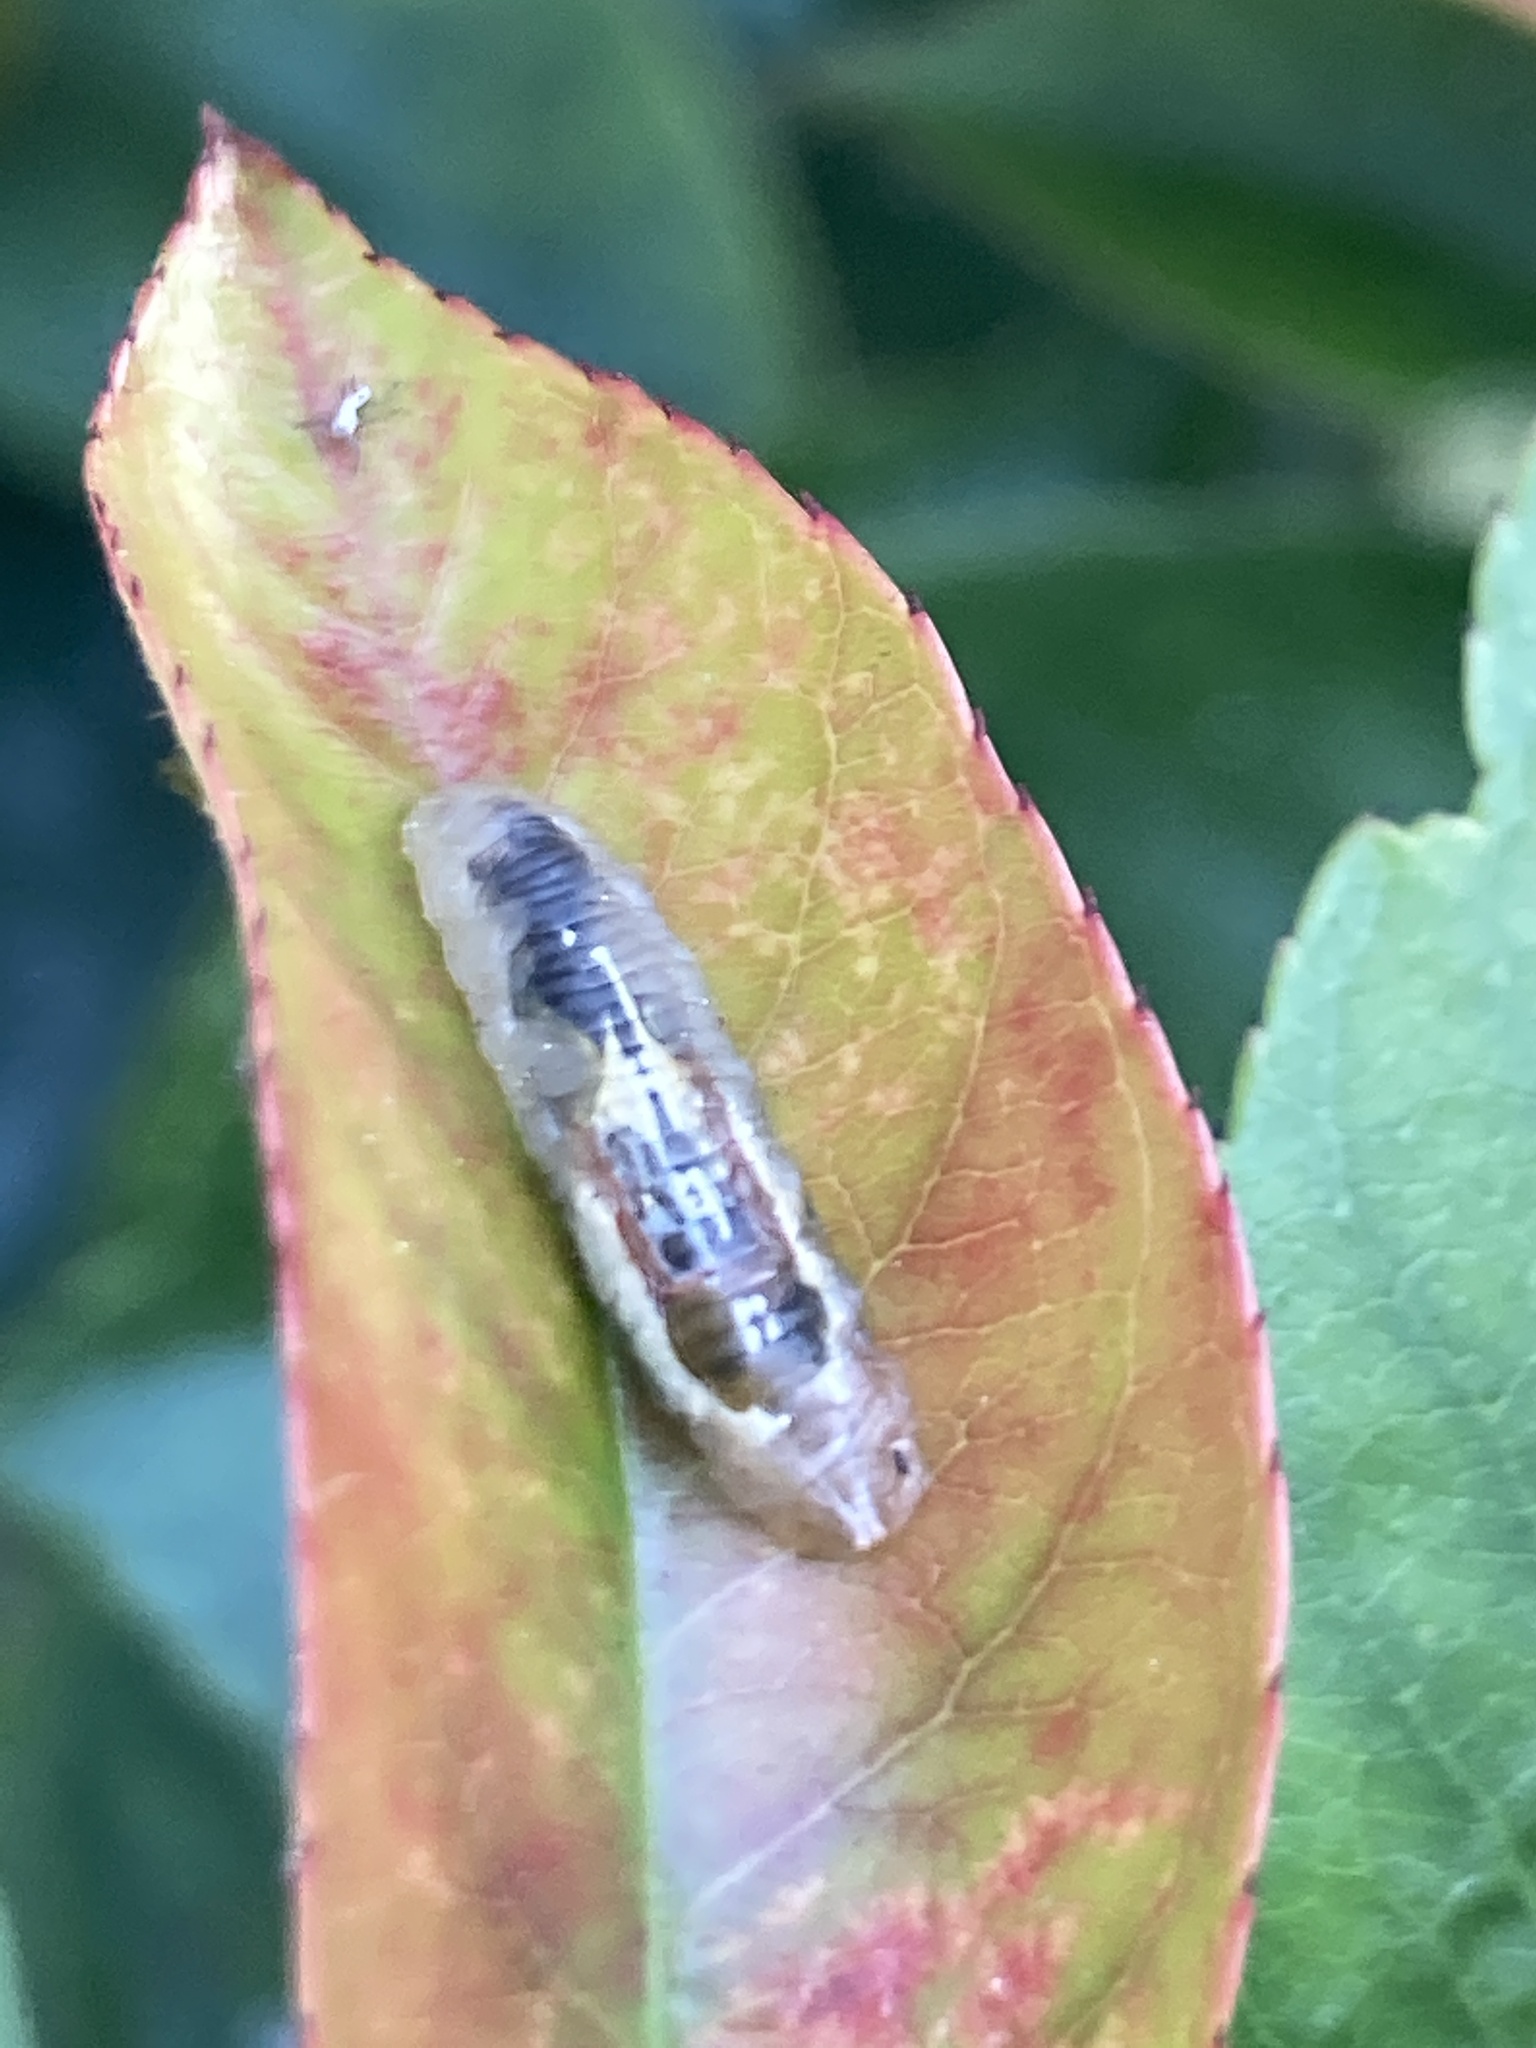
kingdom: Animalia
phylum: Arthropoda
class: Insecta
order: Diptera
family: Syrphidae
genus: Episyrphus
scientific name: Episyrphus balteatus
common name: Marmalade hoverfly
